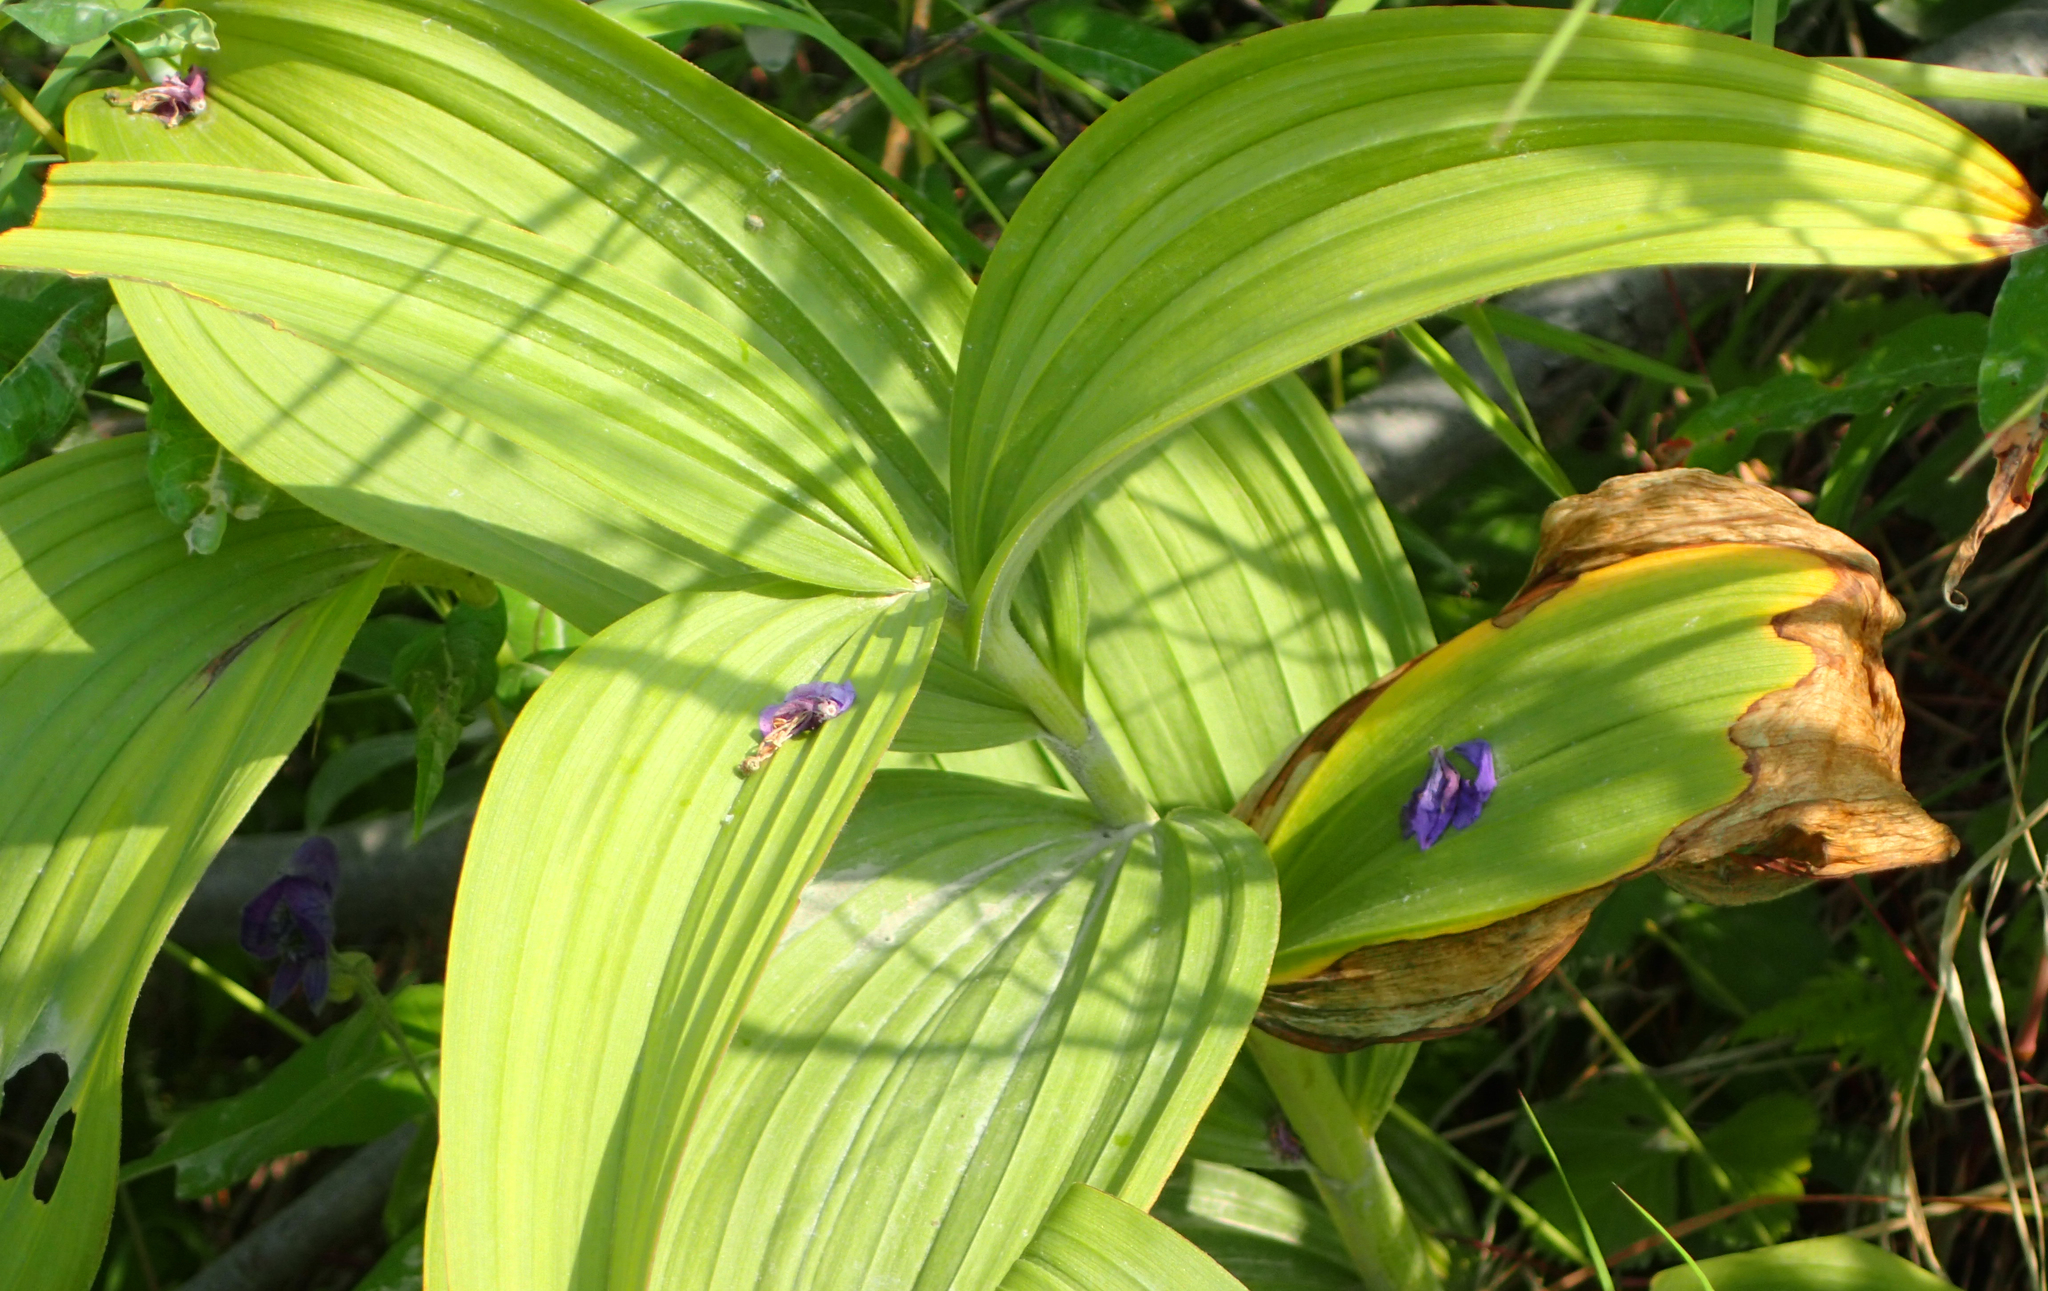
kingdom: Plantae
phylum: Tracheophyta
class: Liliopsida
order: Liliales
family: Melanthiaceae
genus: Veratrum
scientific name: Veratrum viride
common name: American false hellebore
